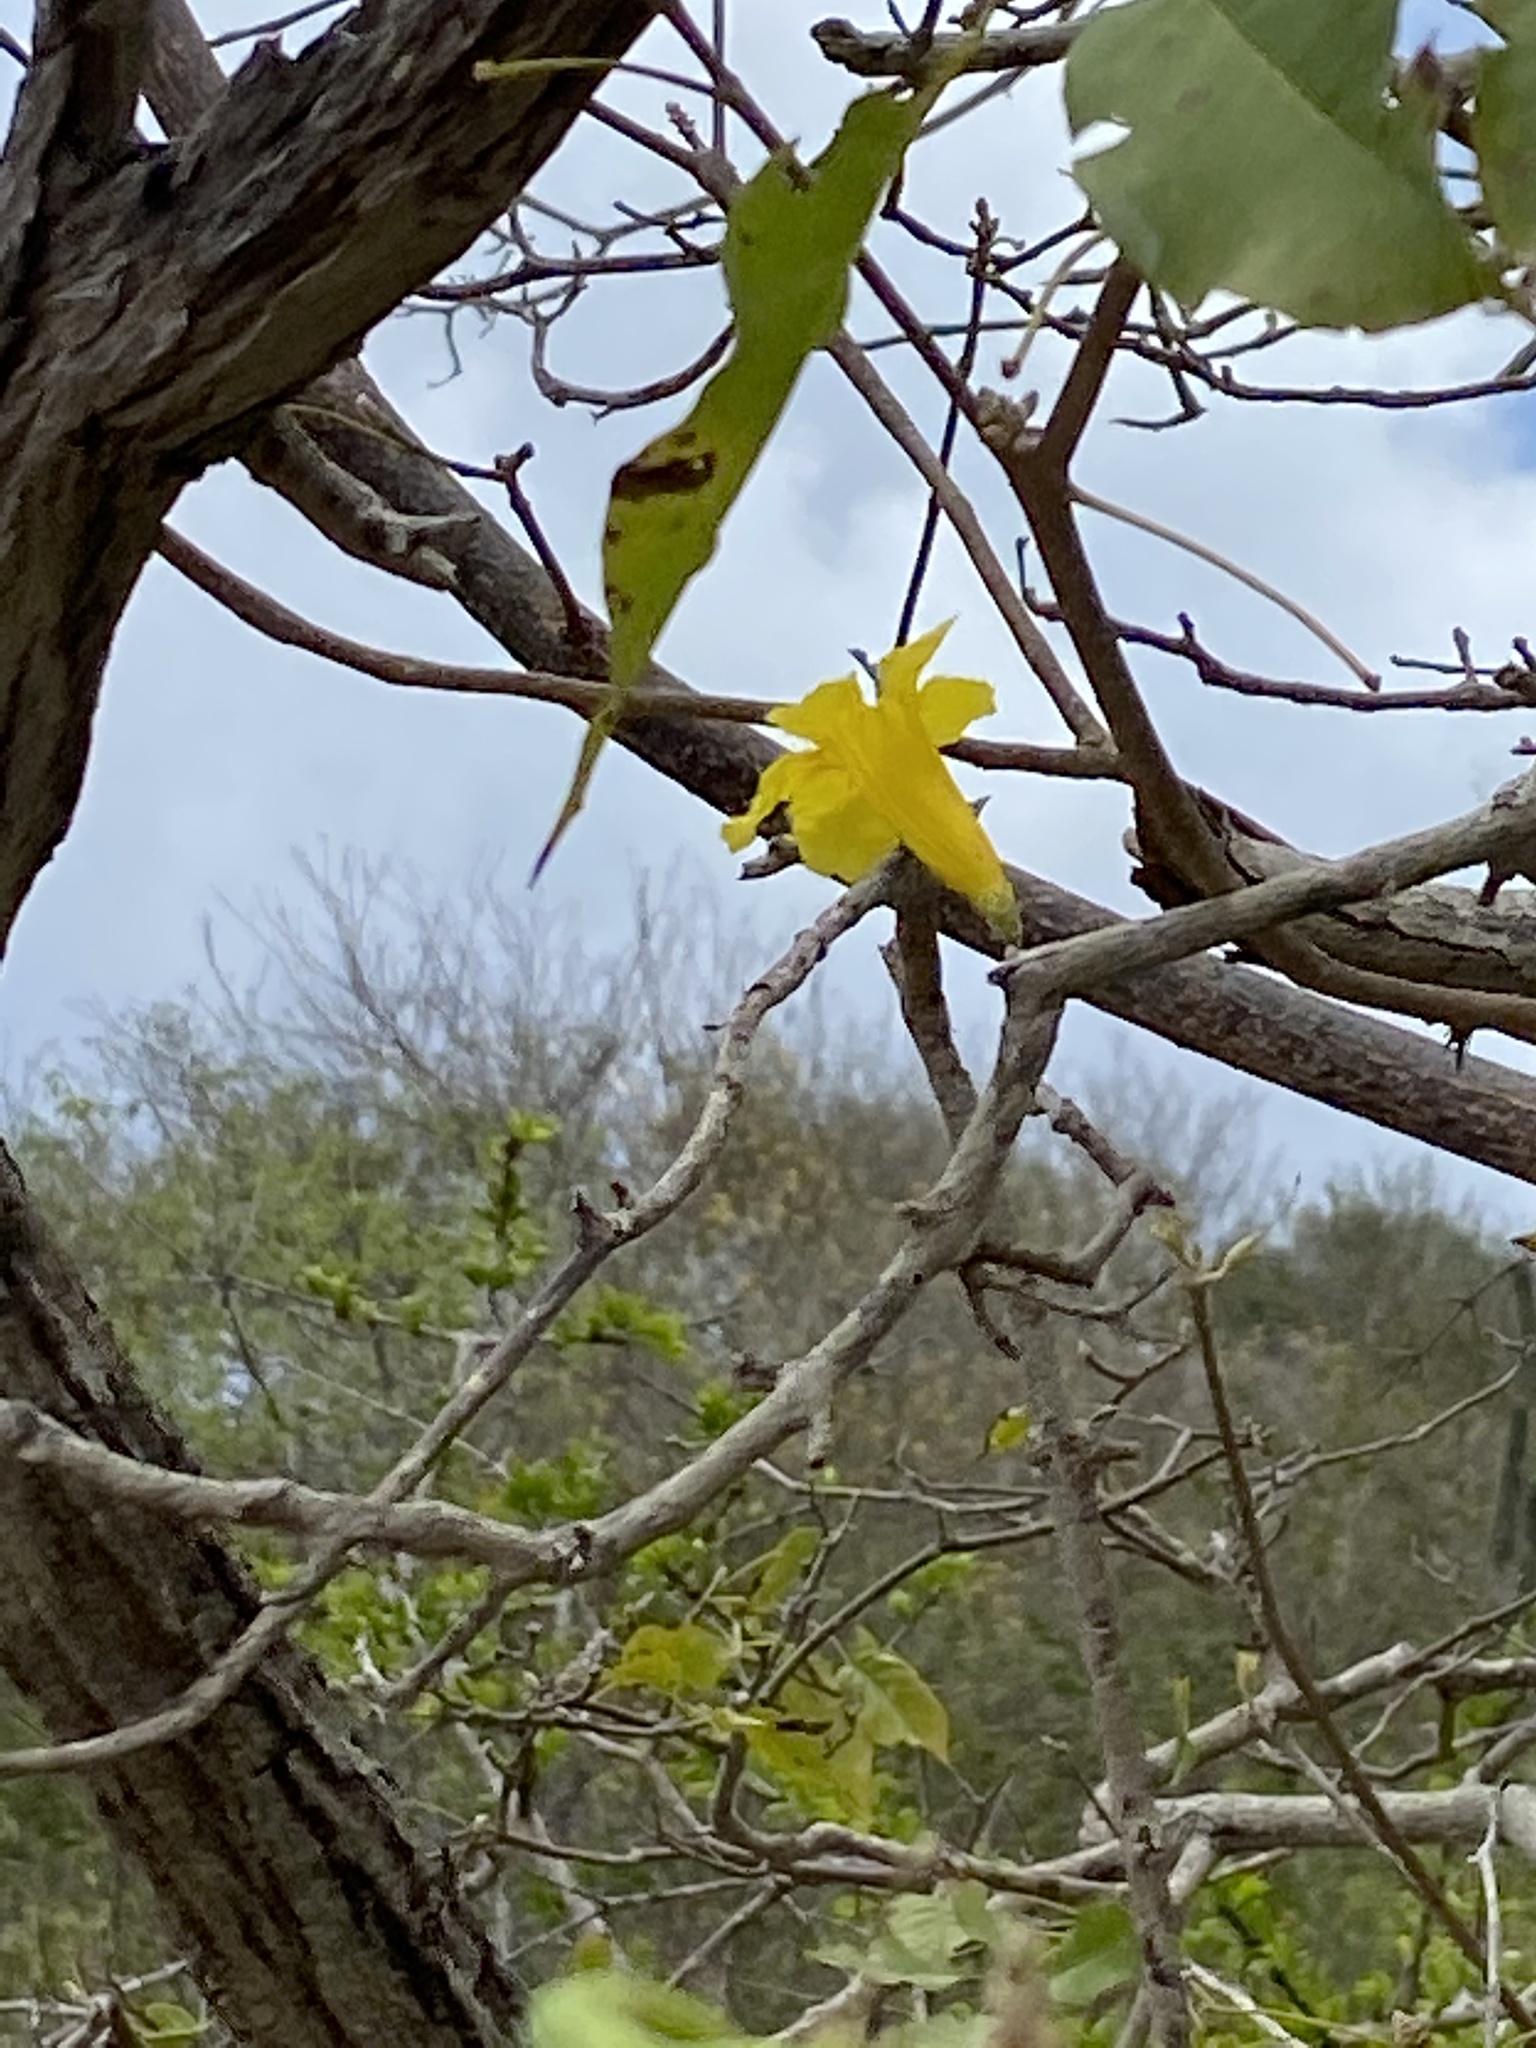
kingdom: Plantae
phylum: Tracheophyta
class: Magnoliopsida
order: Lamiales
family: Bignoniaceae
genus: Handroanthus
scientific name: Handroanthus billbergii
